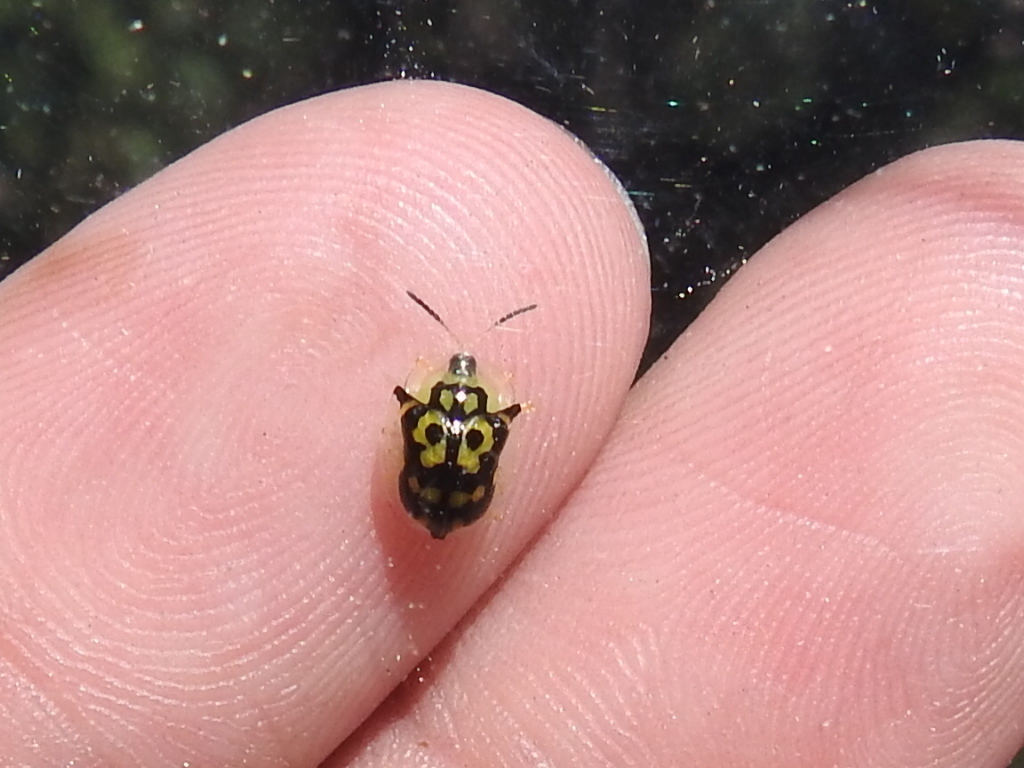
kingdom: Animalia
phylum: Arthropoda
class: Insecta
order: Coleoptera
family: Chrysomelidae
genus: Deloyala
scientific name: Deloyala lecontei
